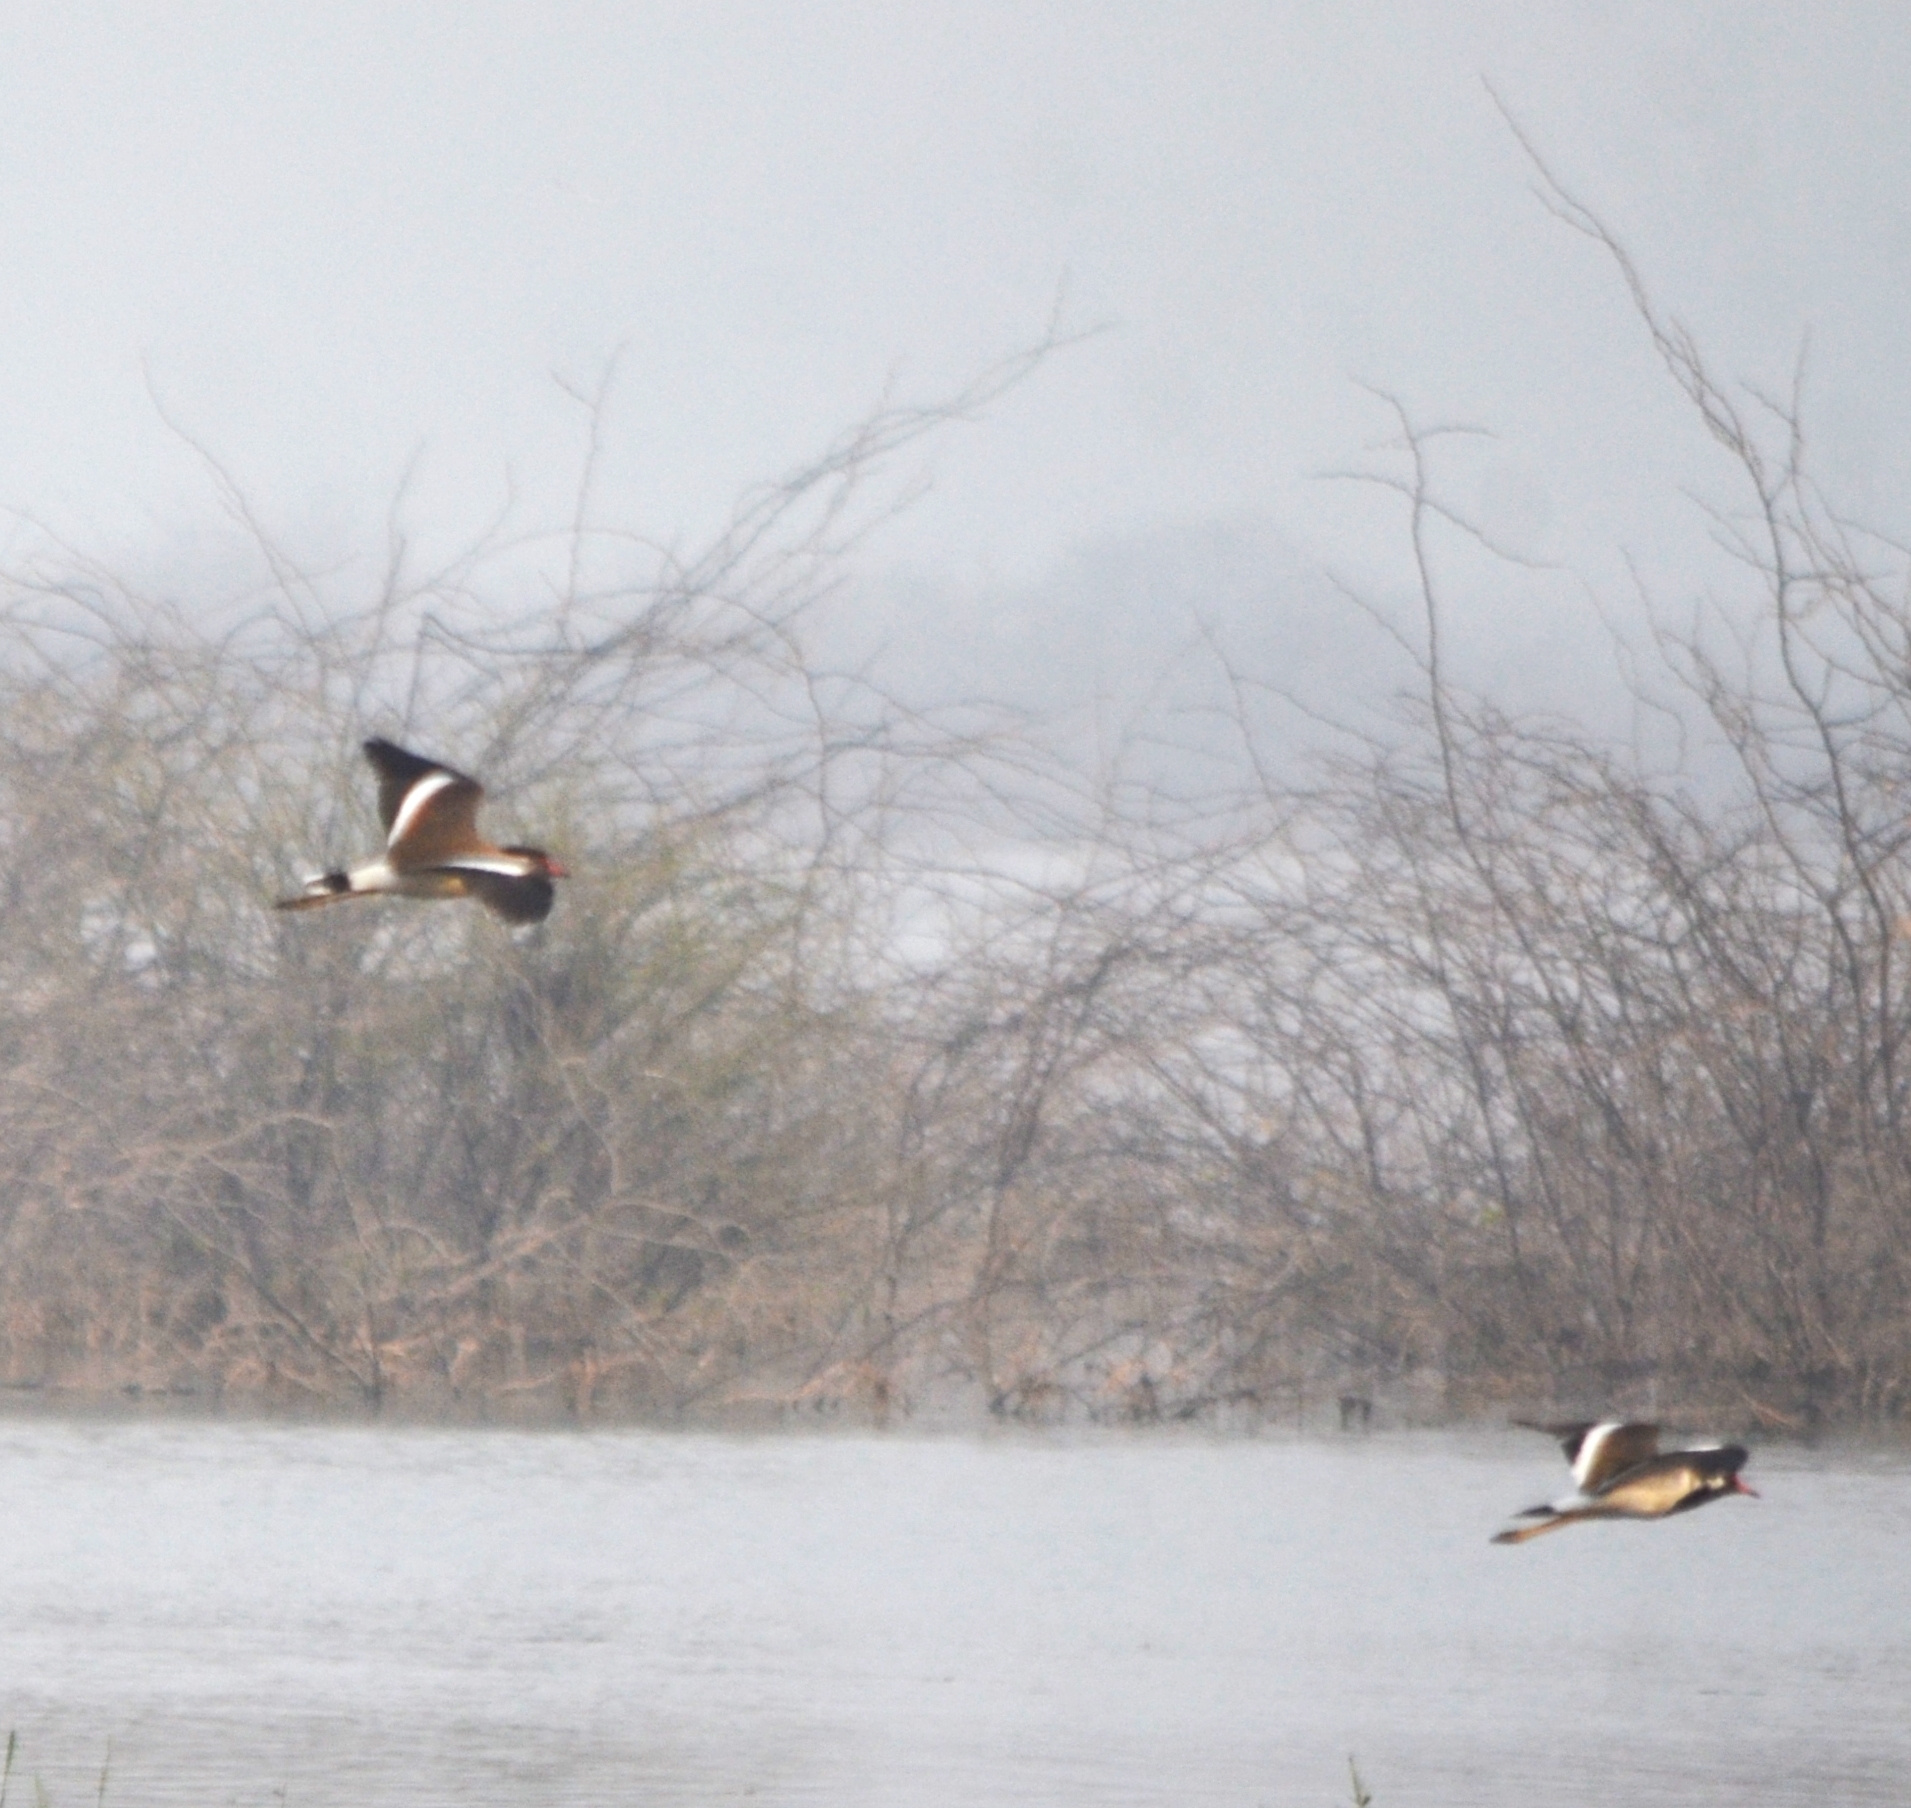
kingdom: Animalia
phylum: Chordata
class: Aves
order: Charadriiformes
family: Charadriidae
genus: Vanellus
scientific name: Vanellus indicus
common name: Red-wattled lapwing
